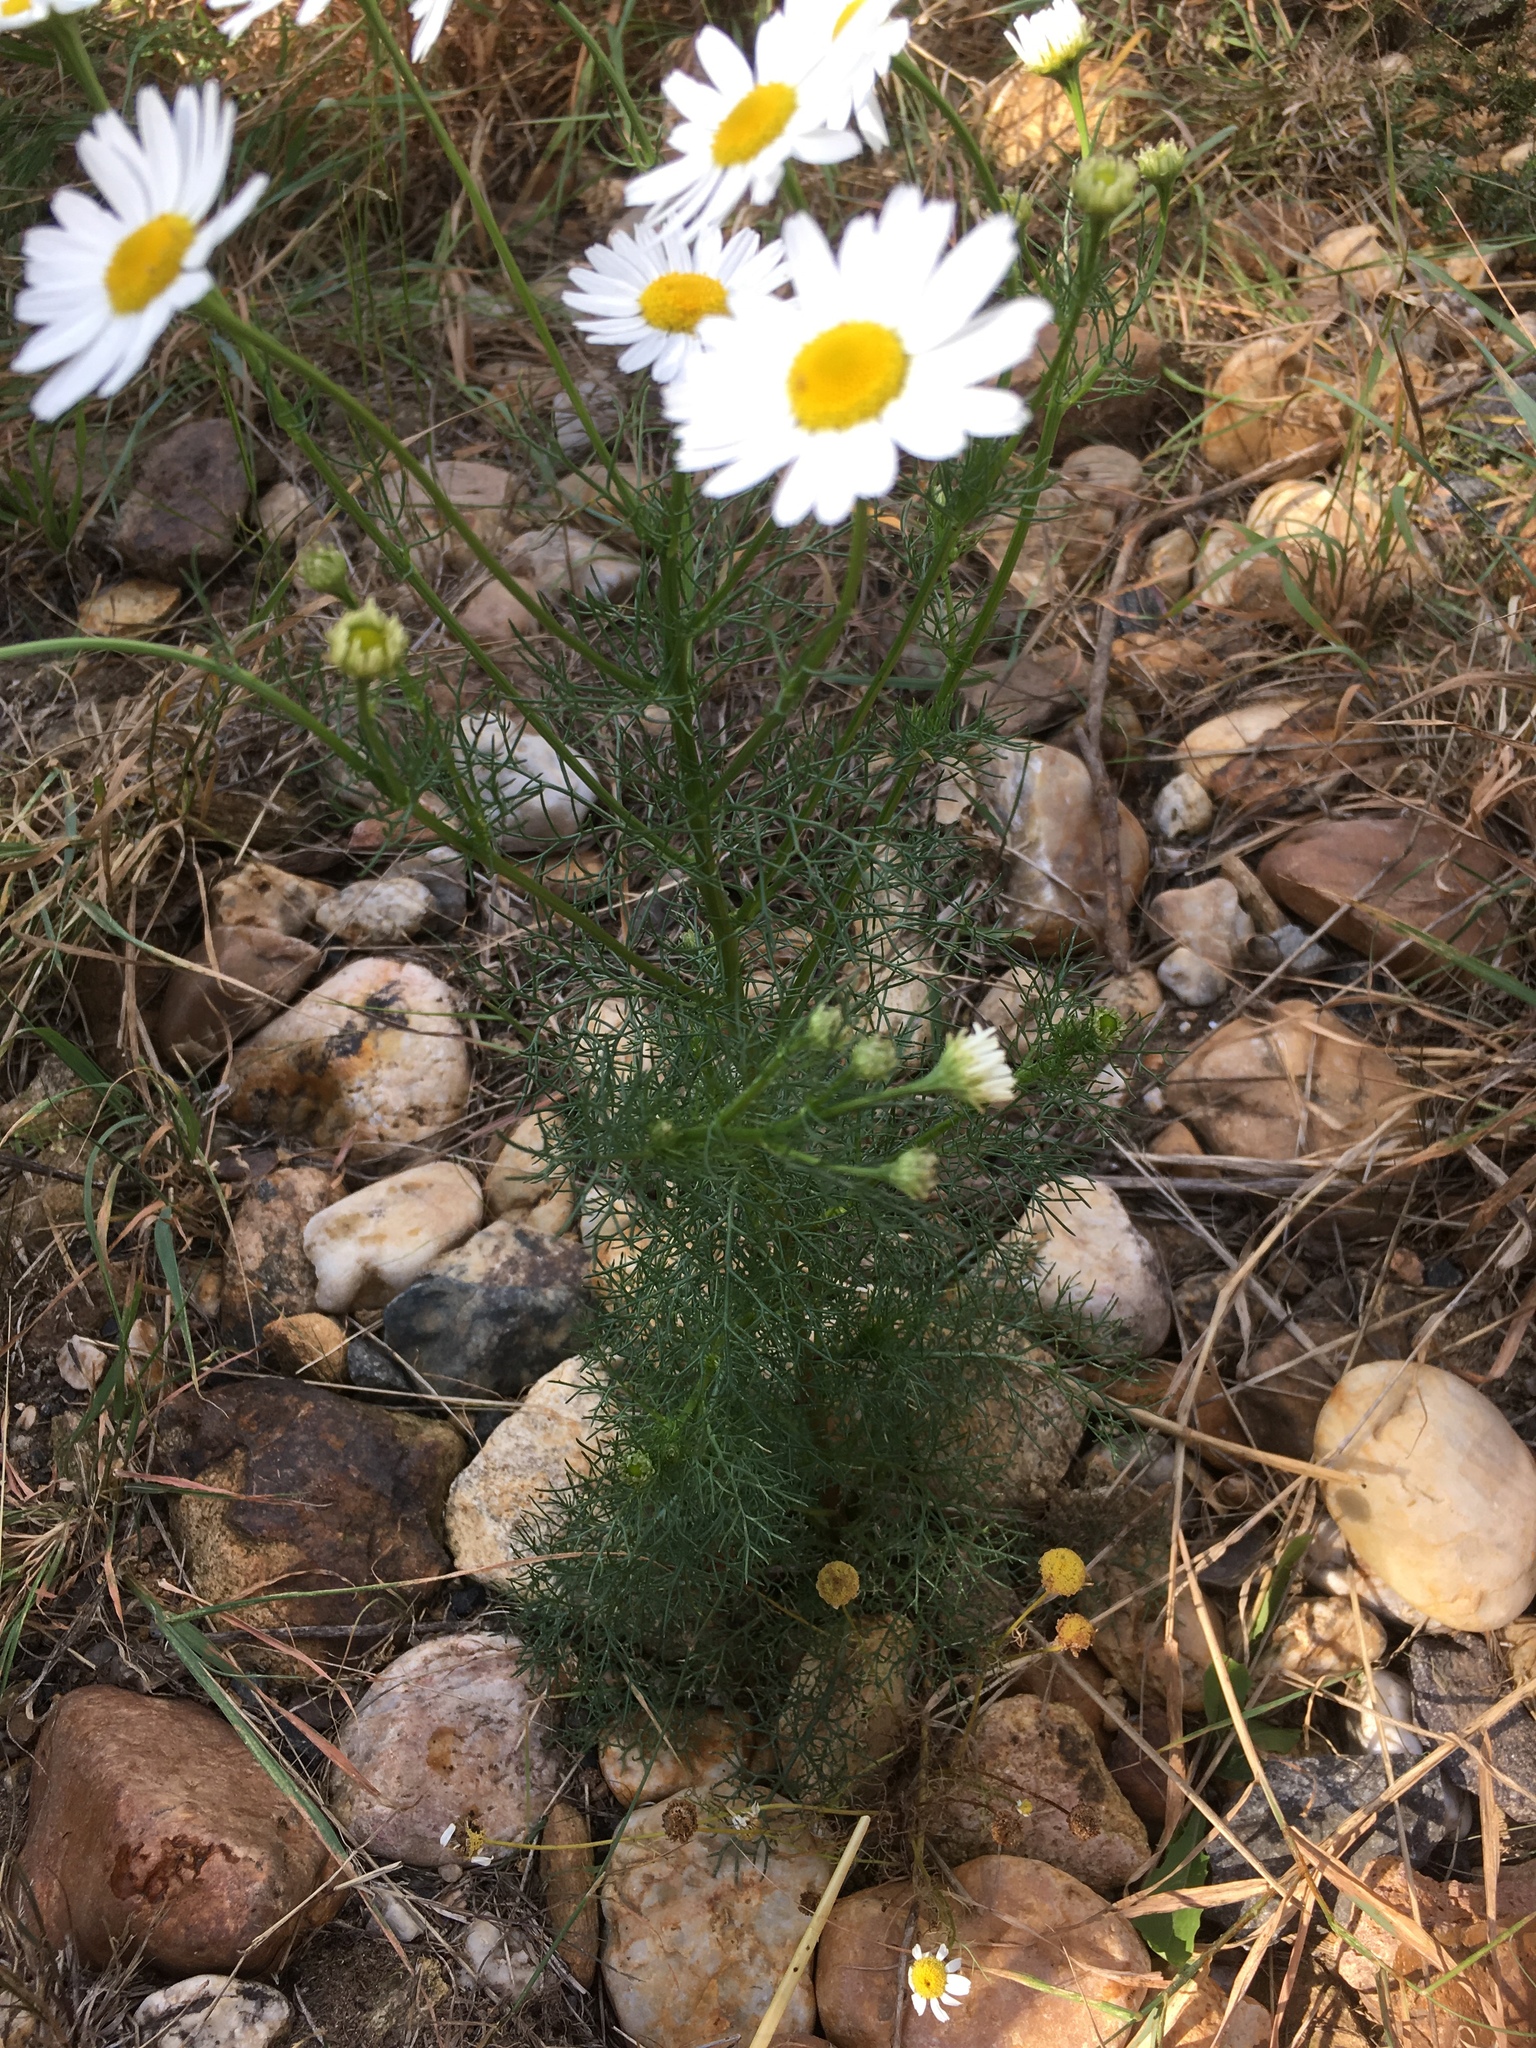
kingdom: Plantae
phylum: Tracheophyta
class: Magnoliopsida
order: Asterales
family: Asteraceae
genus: Tripleurospermum
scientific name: Tripleurospermum inodorum
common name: Scentless mayweed
